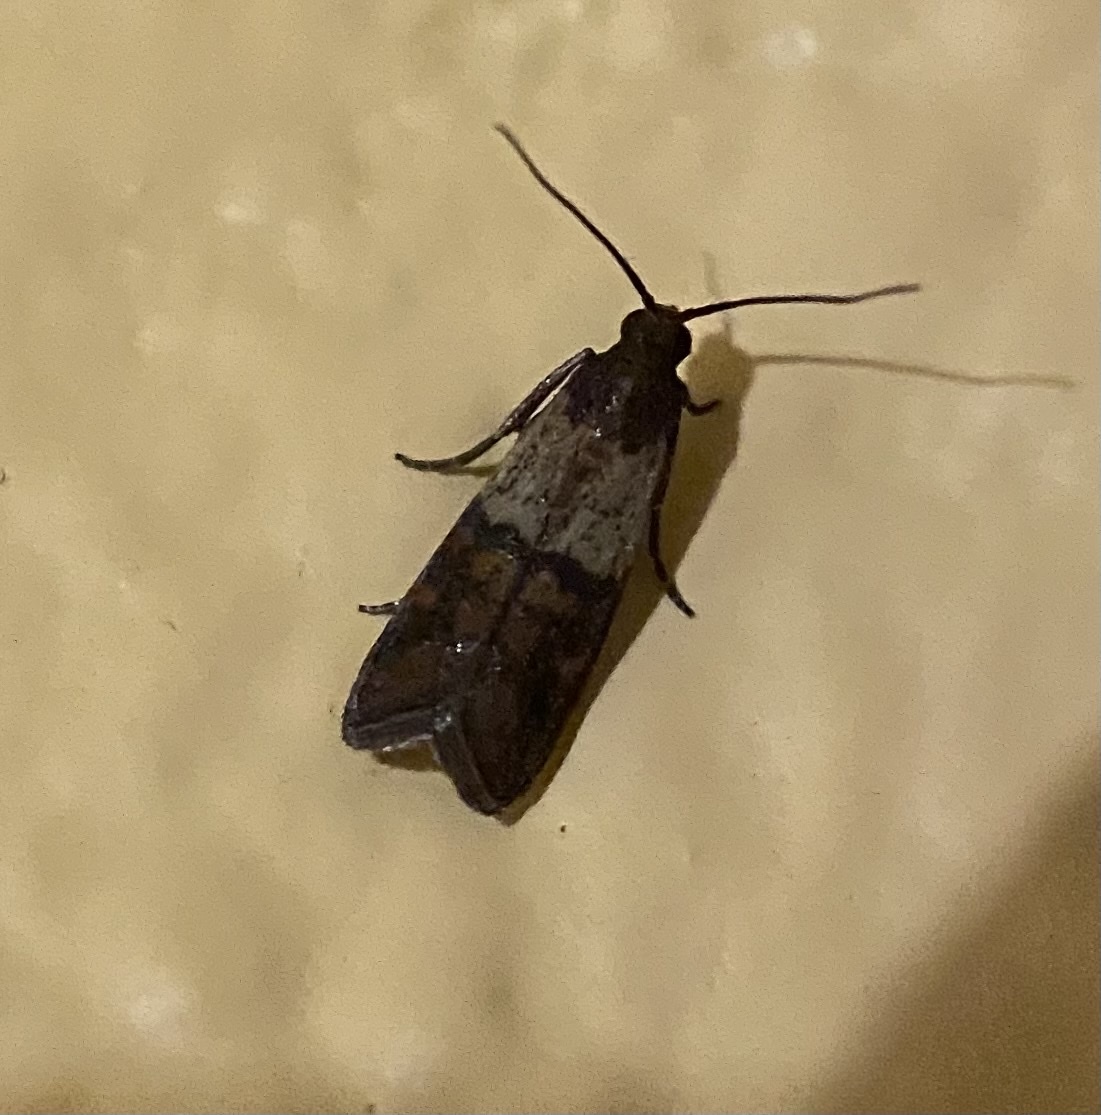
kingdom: Animalia
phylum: Arthropoda
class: Insecta
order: Lepidoptera
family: Pyralidae
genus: Plodia
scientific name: Plodia interpunctella
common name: Indian meal moth
